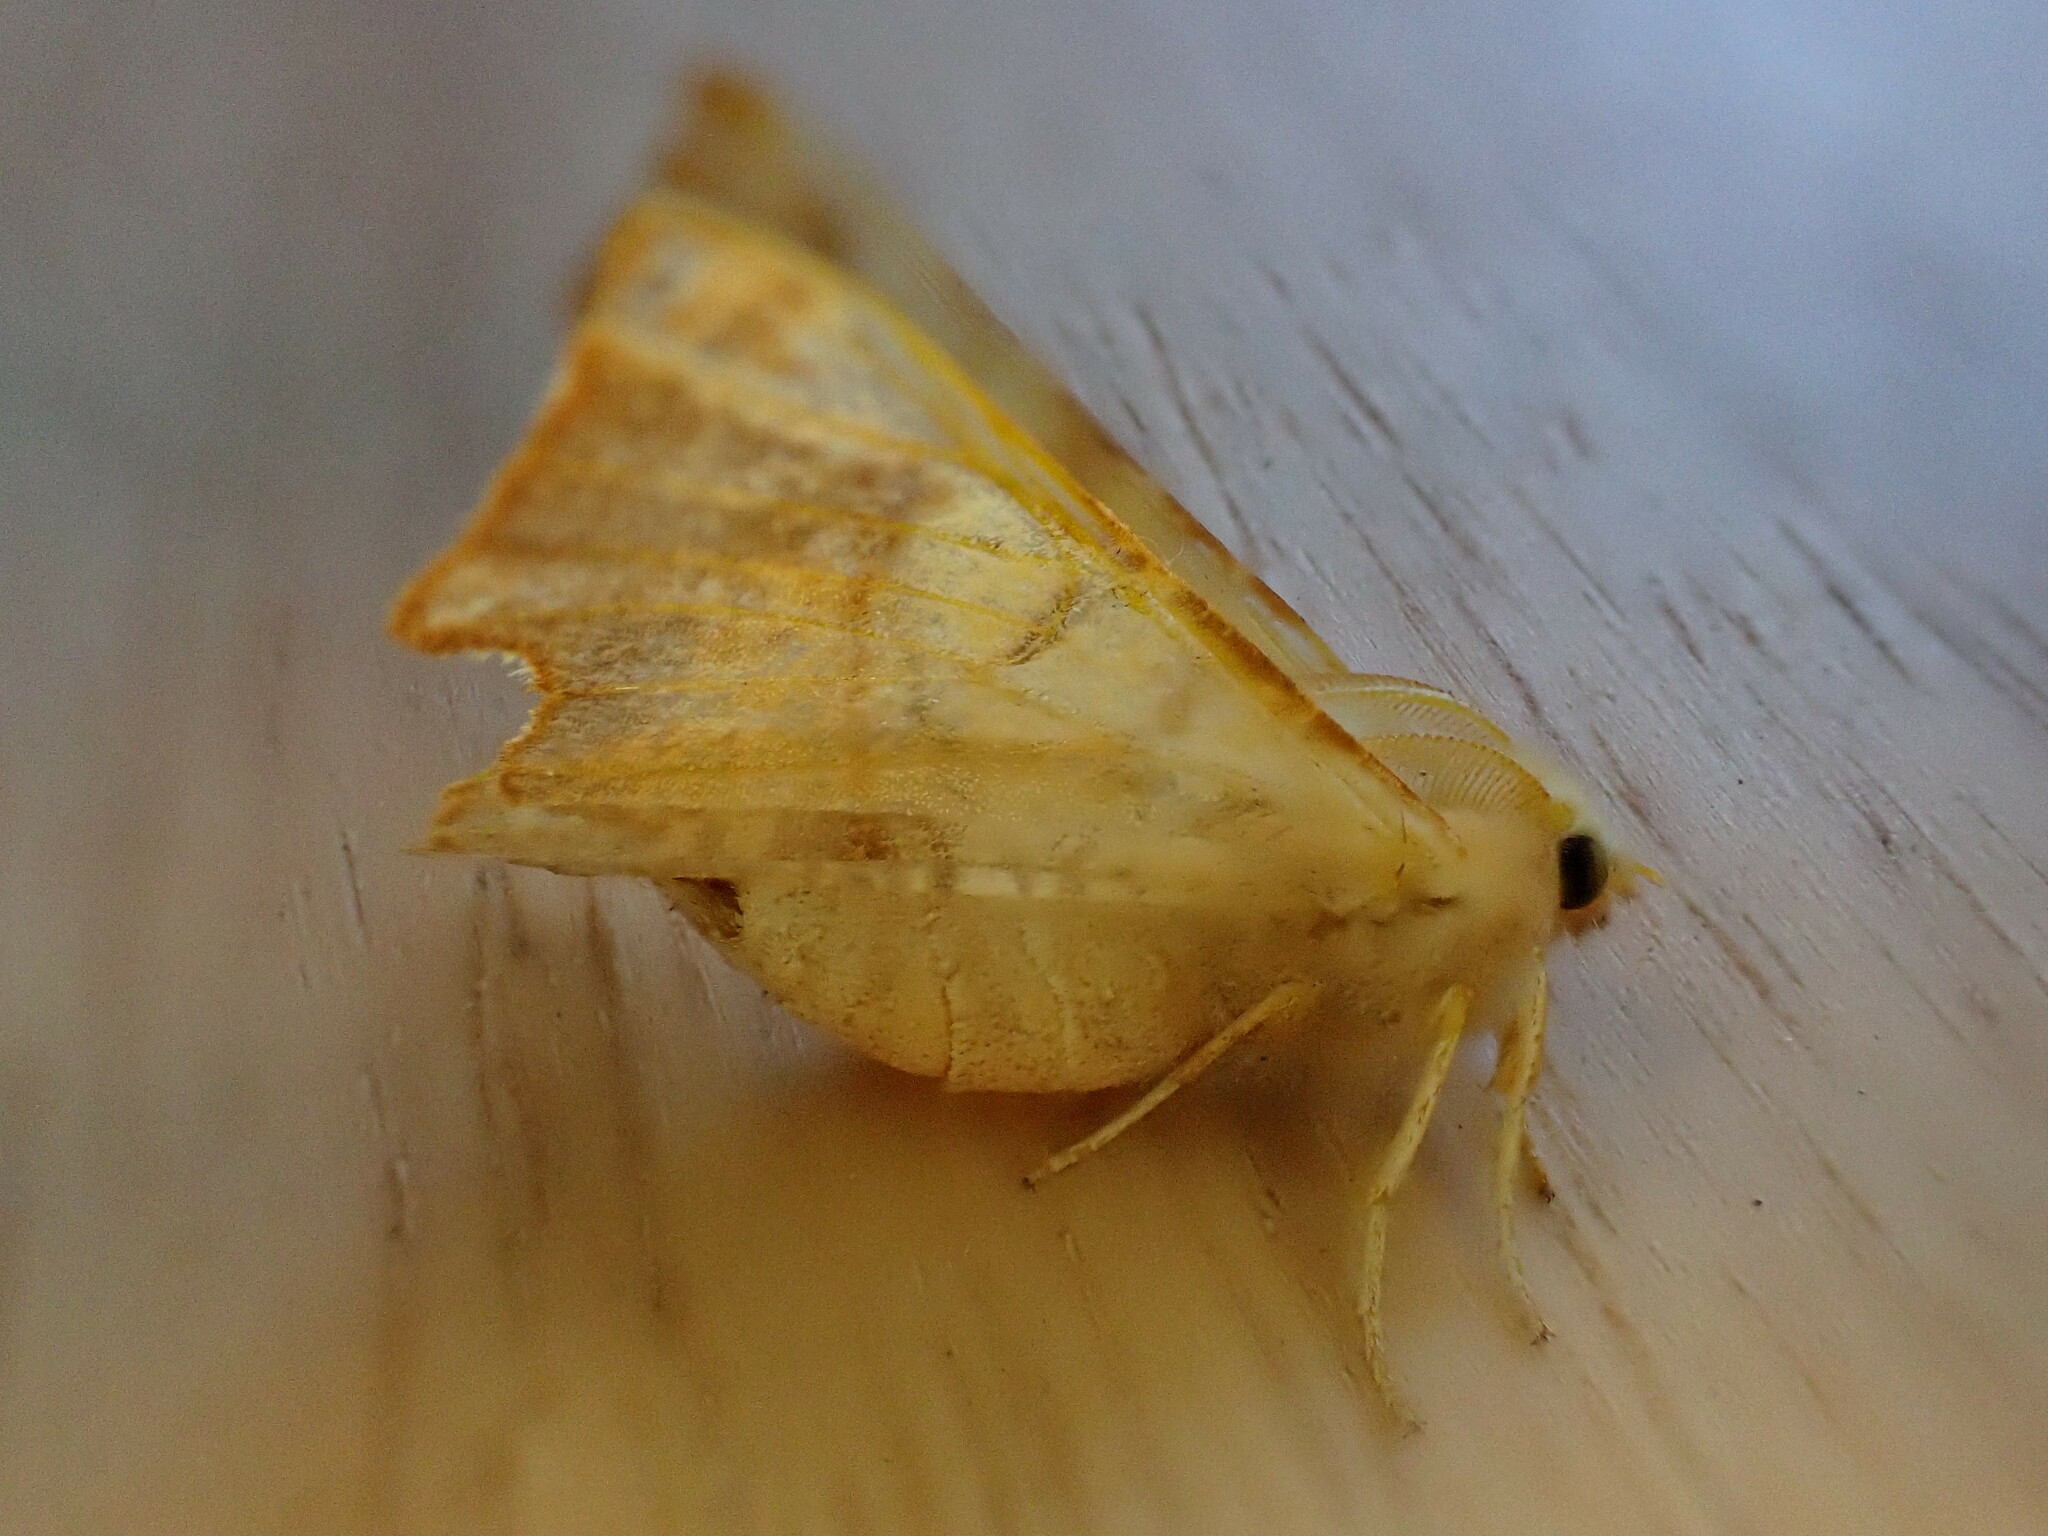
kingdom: Animalia
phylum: Arthropoda
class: Insecta
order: Lepidoptera
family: Geometridae
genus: Ennomos
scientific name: Ennomos fuscantaria
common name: Dusky thorn
